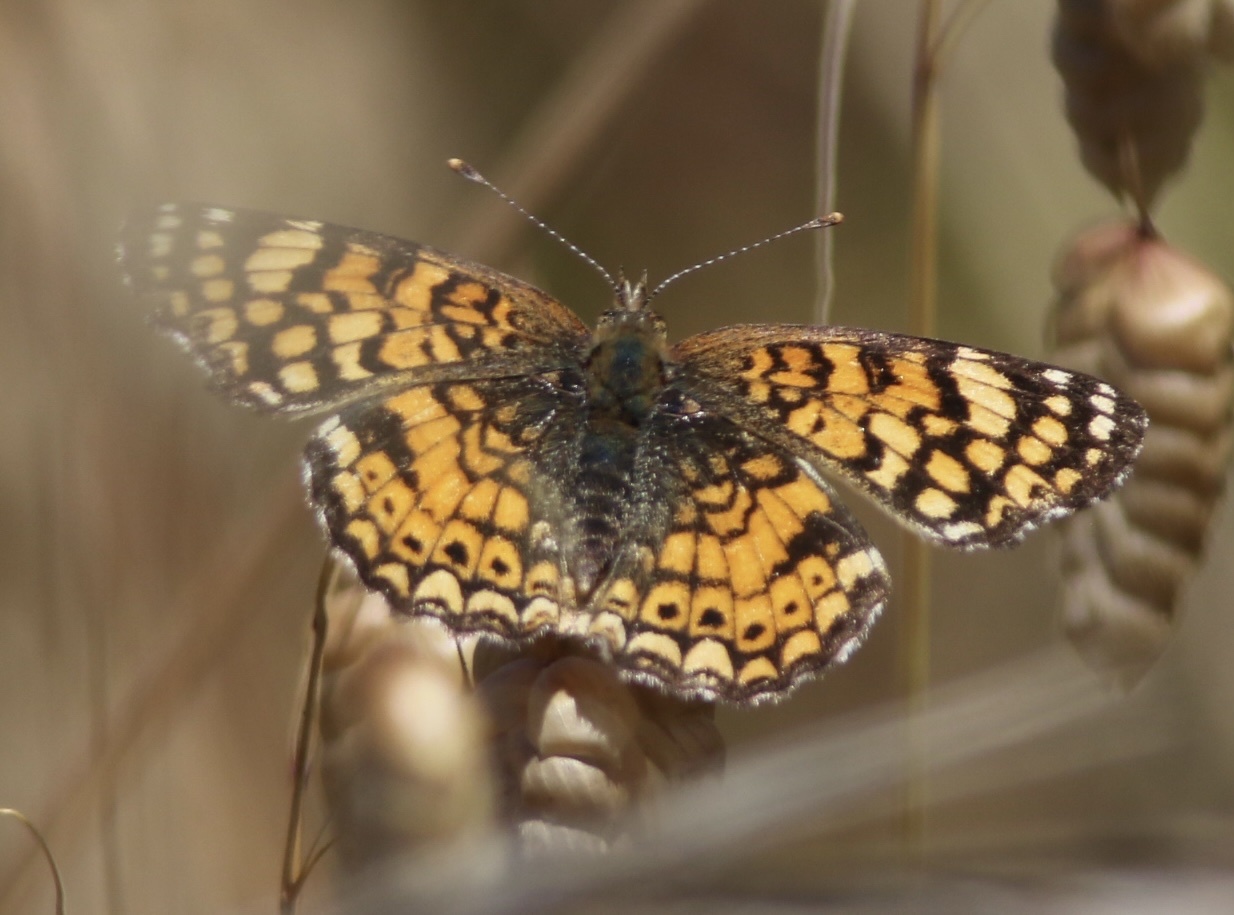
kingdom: Animalia
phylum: Arthropoda
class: Insecta
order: Lepidoptera
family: Nymphalidae
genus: Eresia
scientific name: Eresia aveyrona
